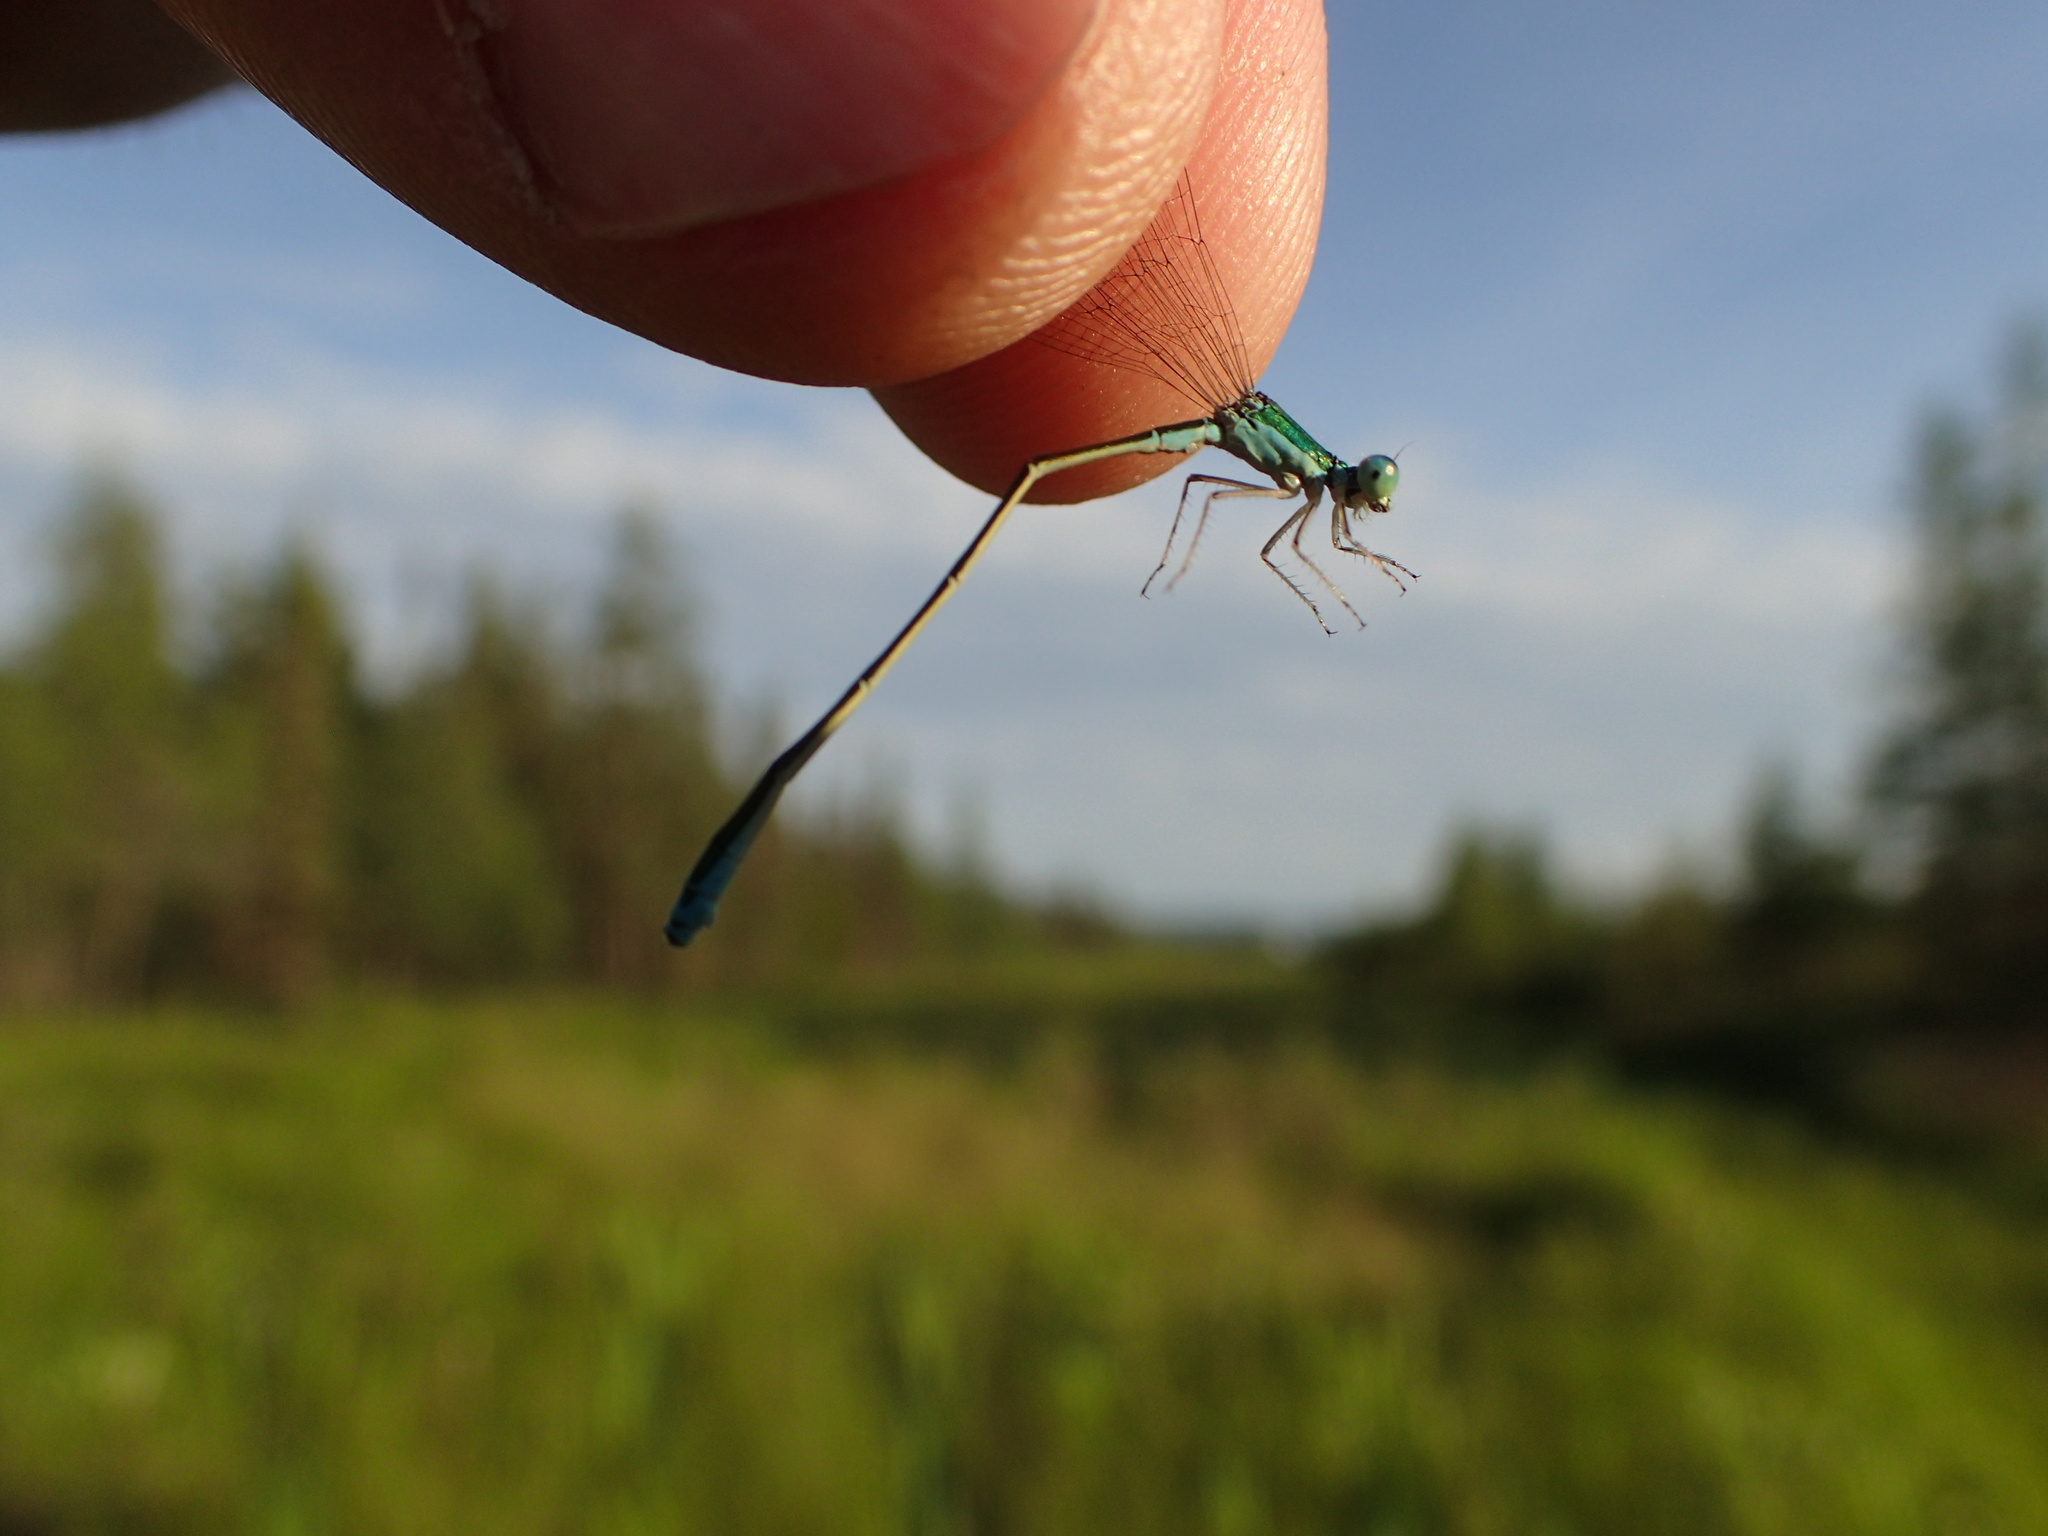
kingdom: Animalia
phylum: Arthropoda
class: Insecta
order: Odonata
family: Coenagrionidae
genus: Nehalennia
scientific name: Nehalennia irene
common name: Sedge sprite
